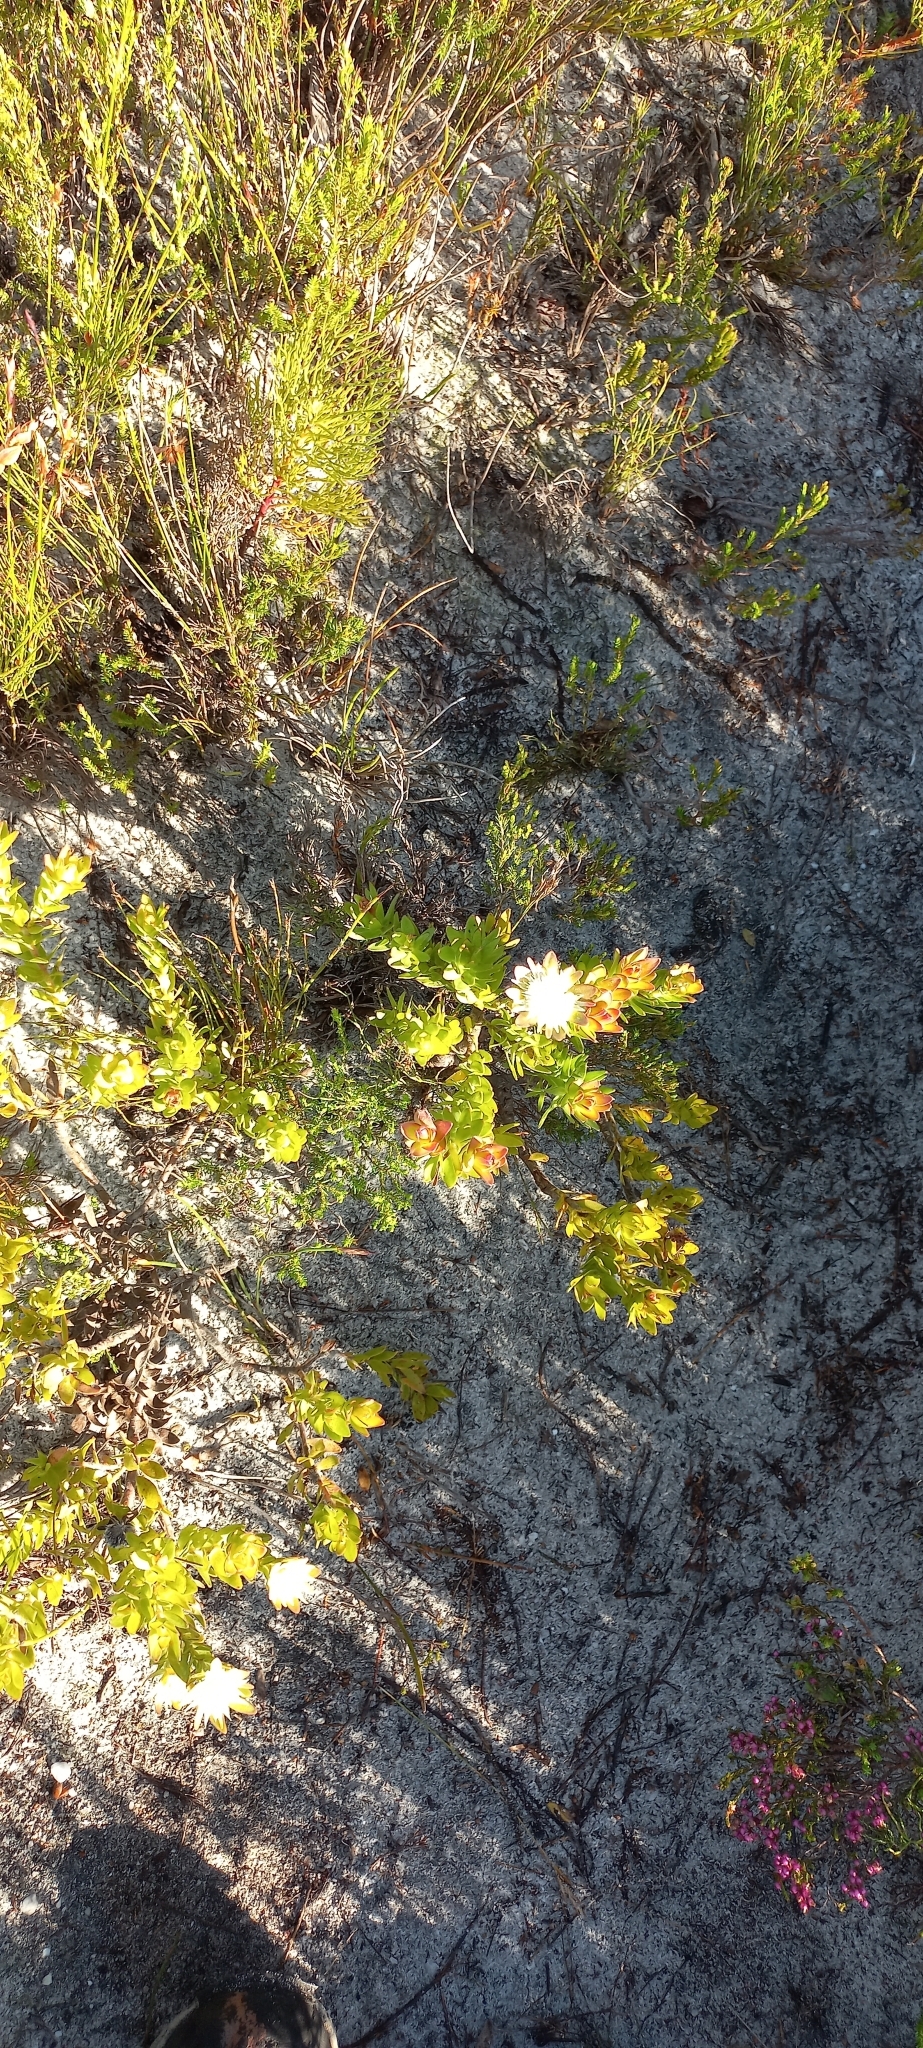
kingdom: Plantae
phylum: Tracheophyta
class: Magnoliopsida
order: Proteales
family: Proteaceae
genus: Diastella
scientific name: Diastella thymelaeoides
